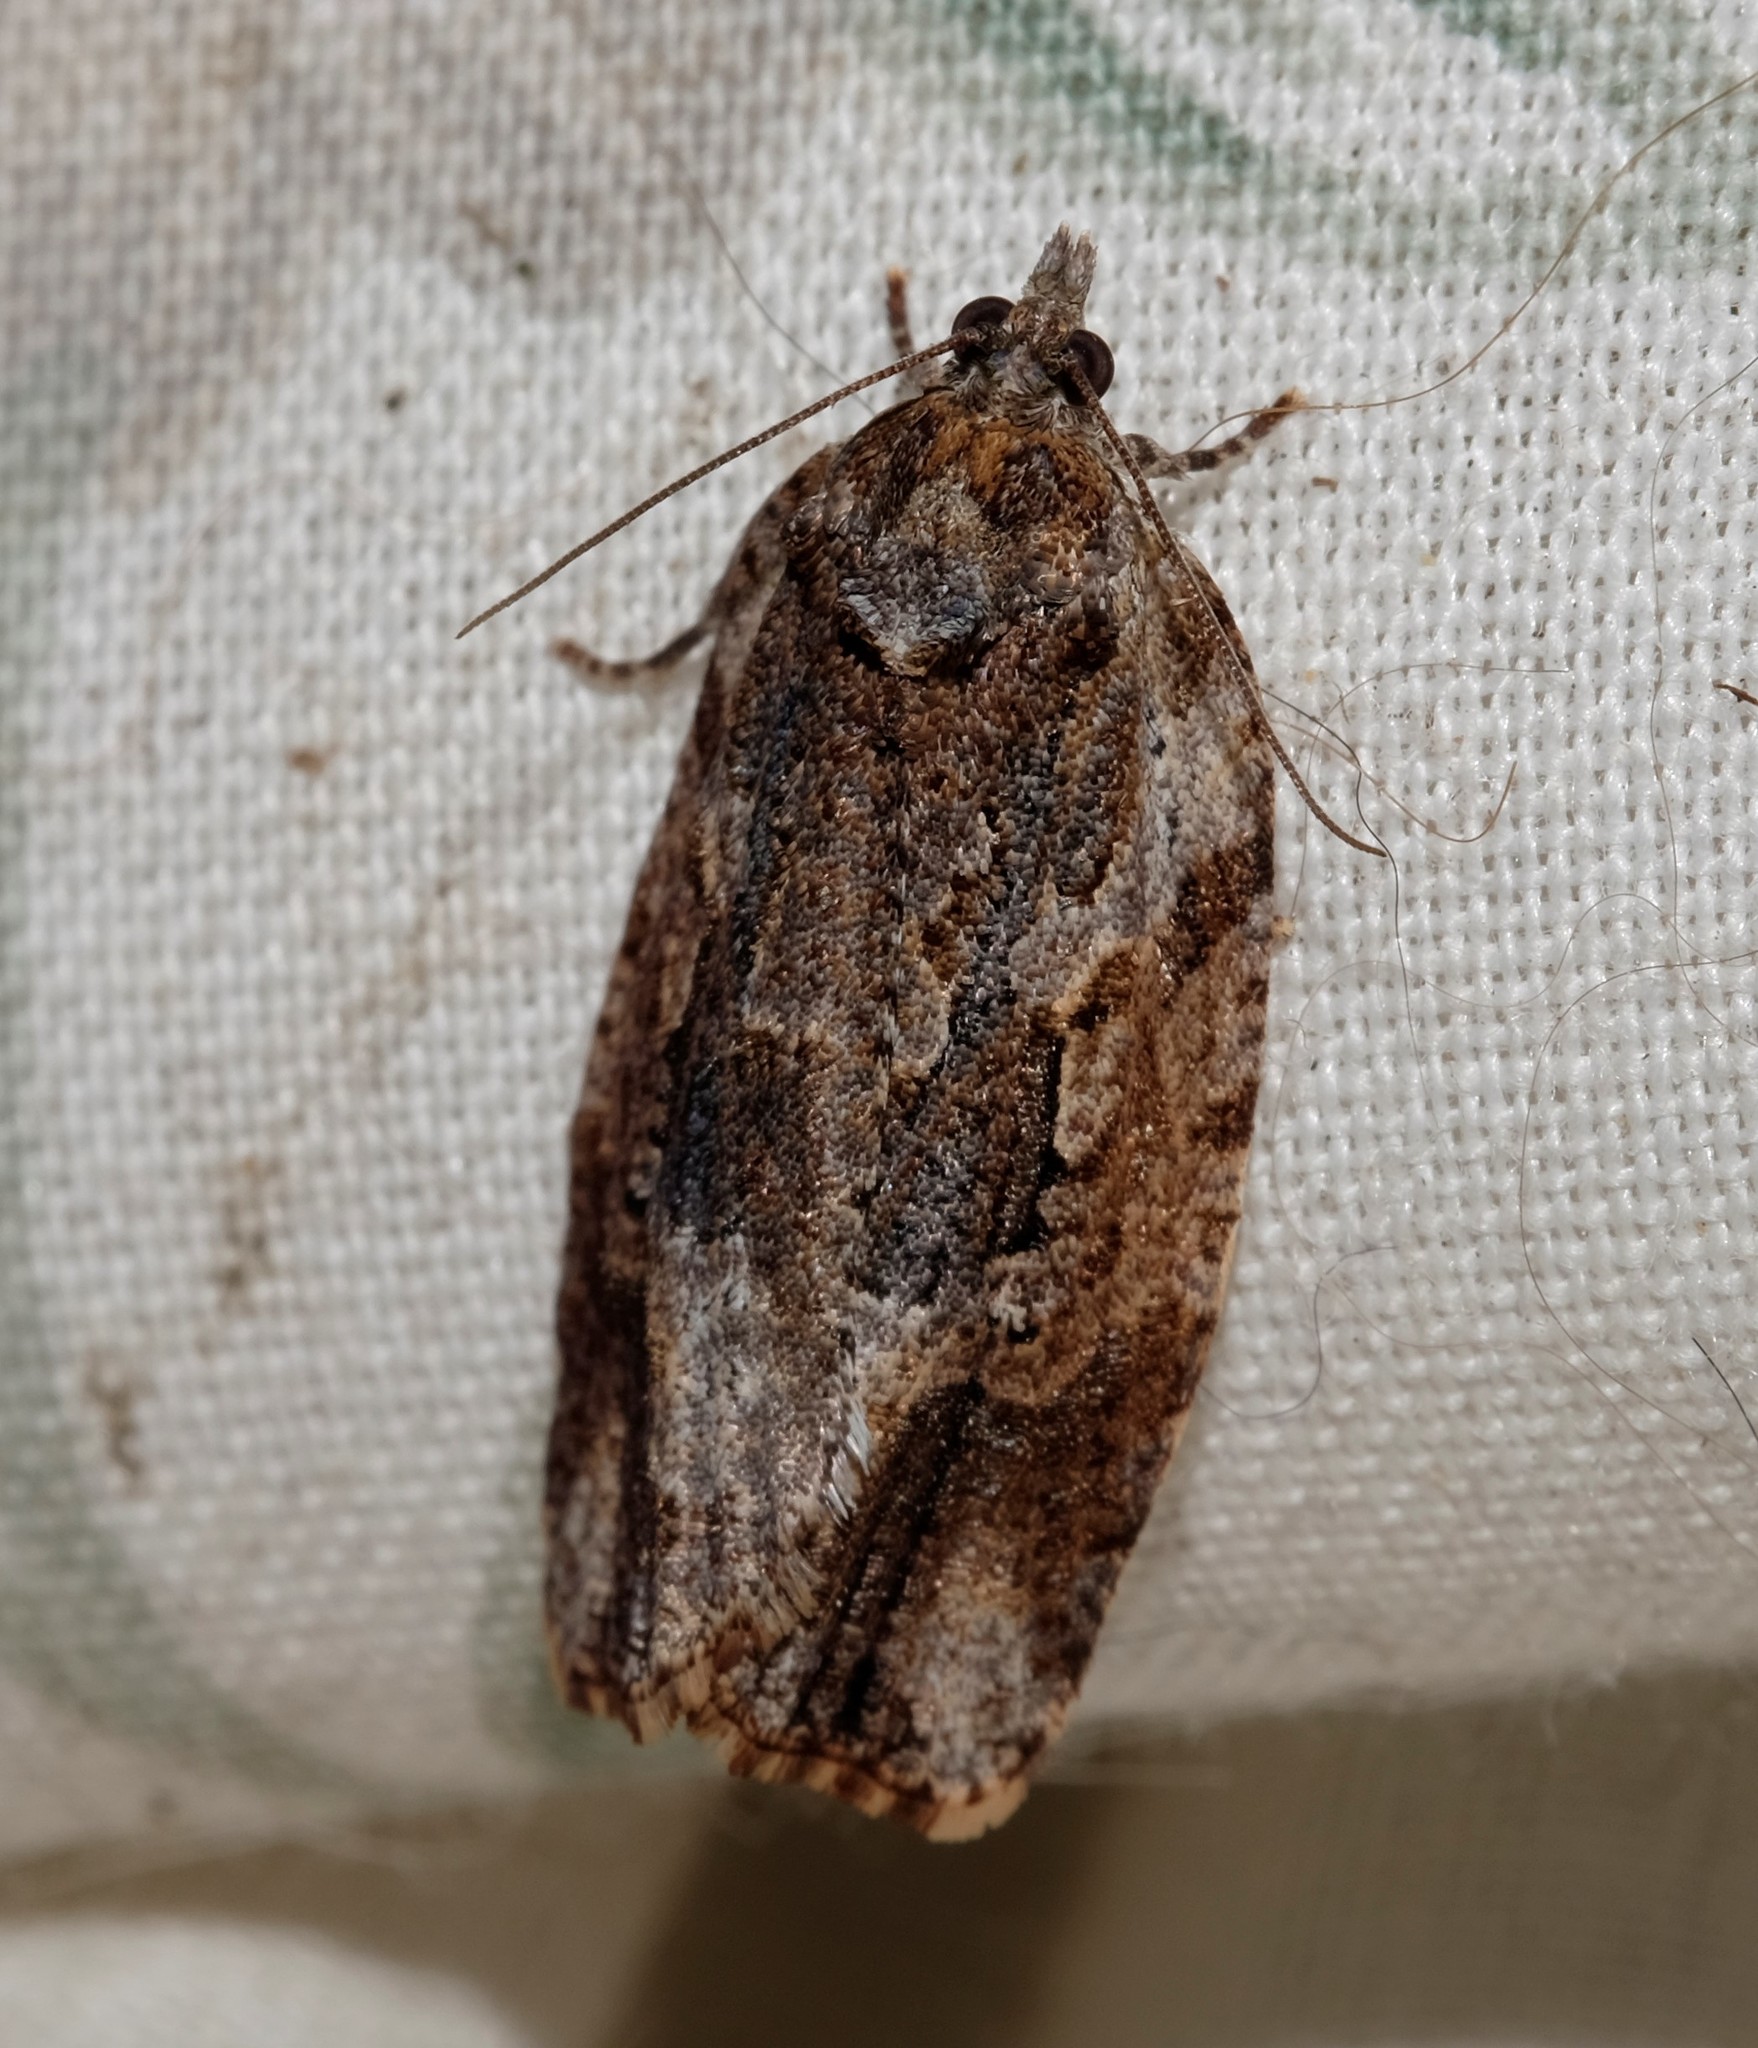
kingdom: Animalia
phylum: Arthropoda
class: Insecta
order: Lepidoptera
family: Tortricidae
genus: Thrincophora
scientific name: Thrincophora lignigerana
